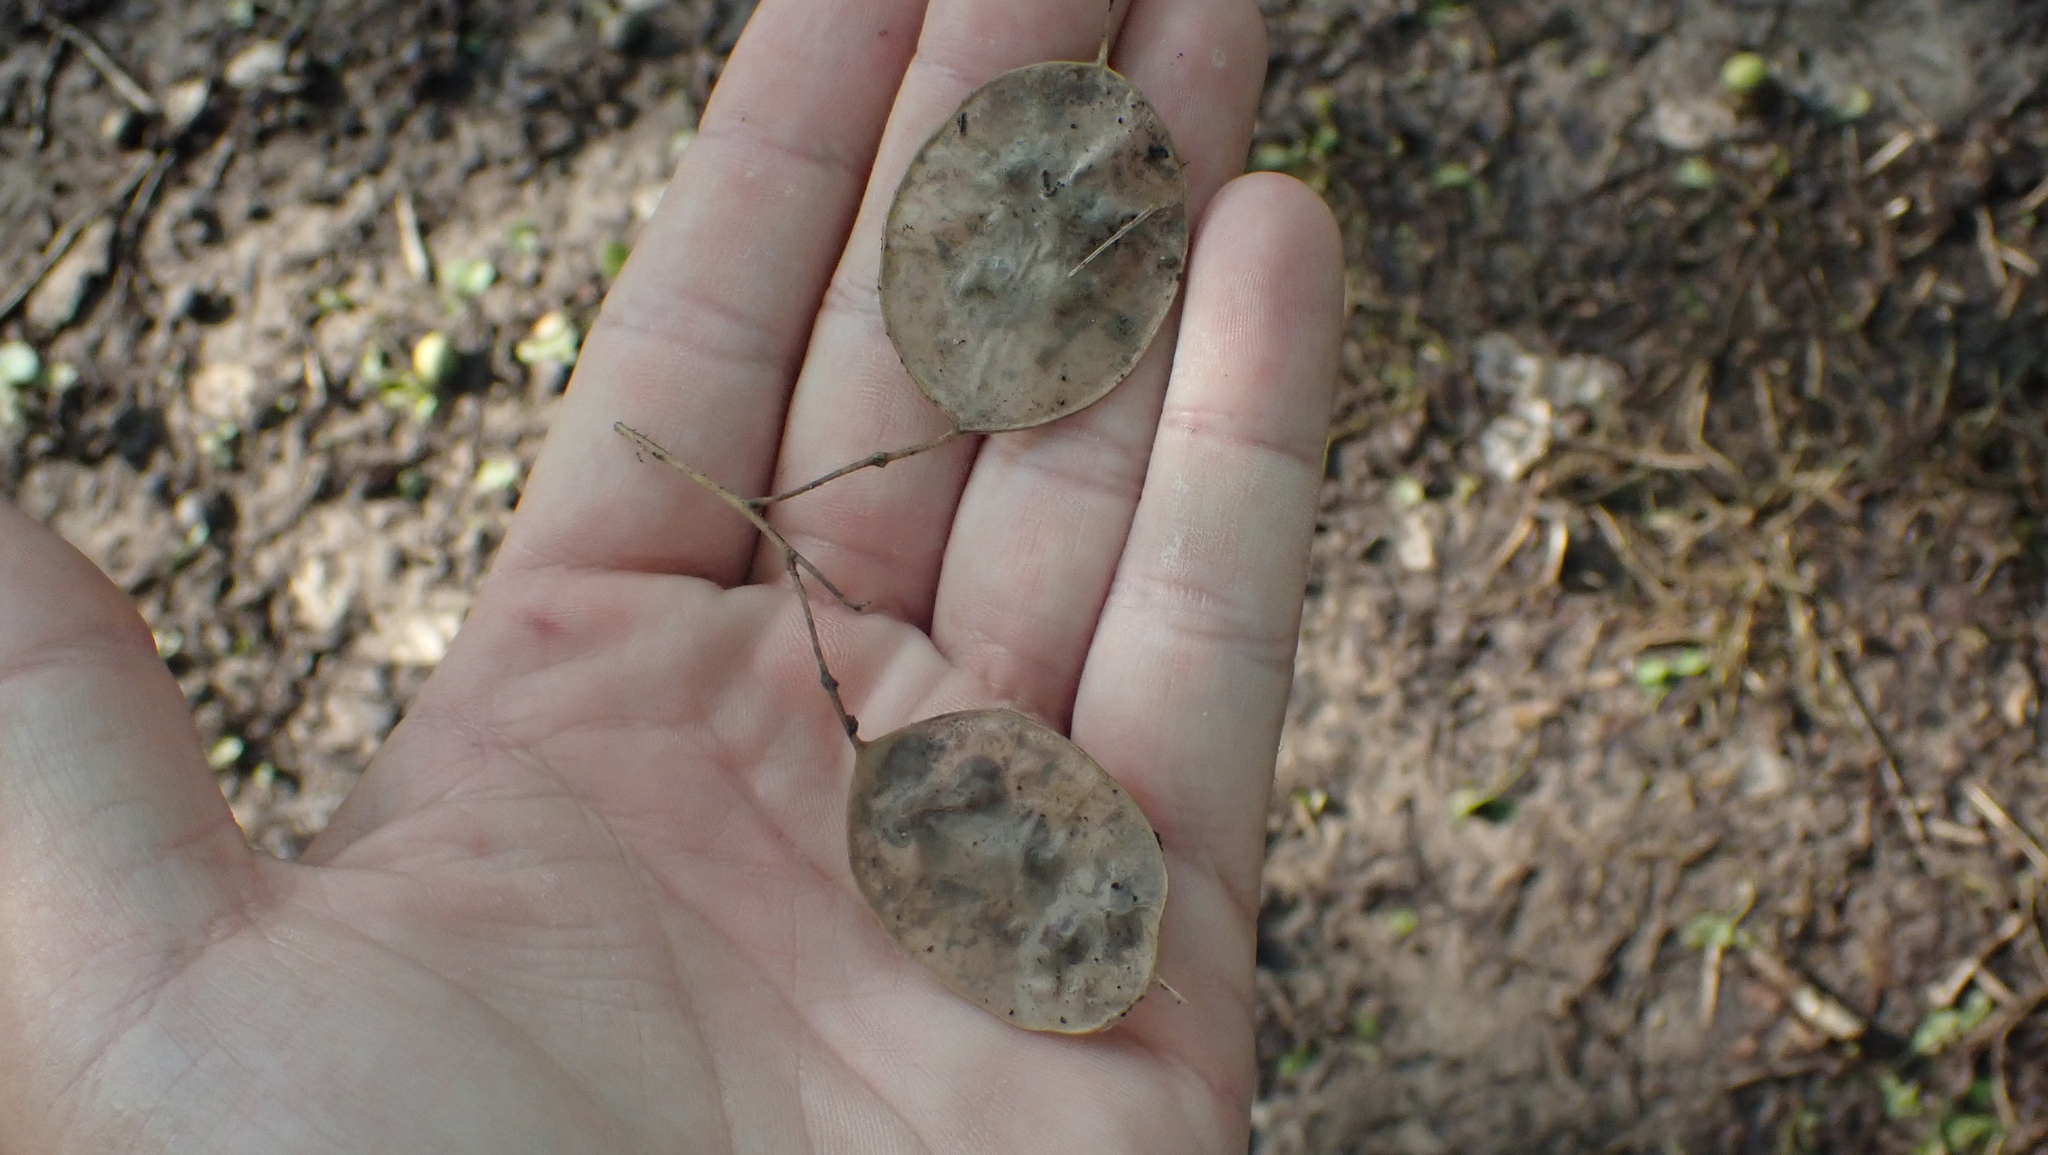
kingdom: Plantae
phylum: Tracheophyta
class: Magnoliopsida
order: Brassicales
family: Brassicaceae
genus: Lunaria
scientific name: Lunaria annua
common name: Honesty
